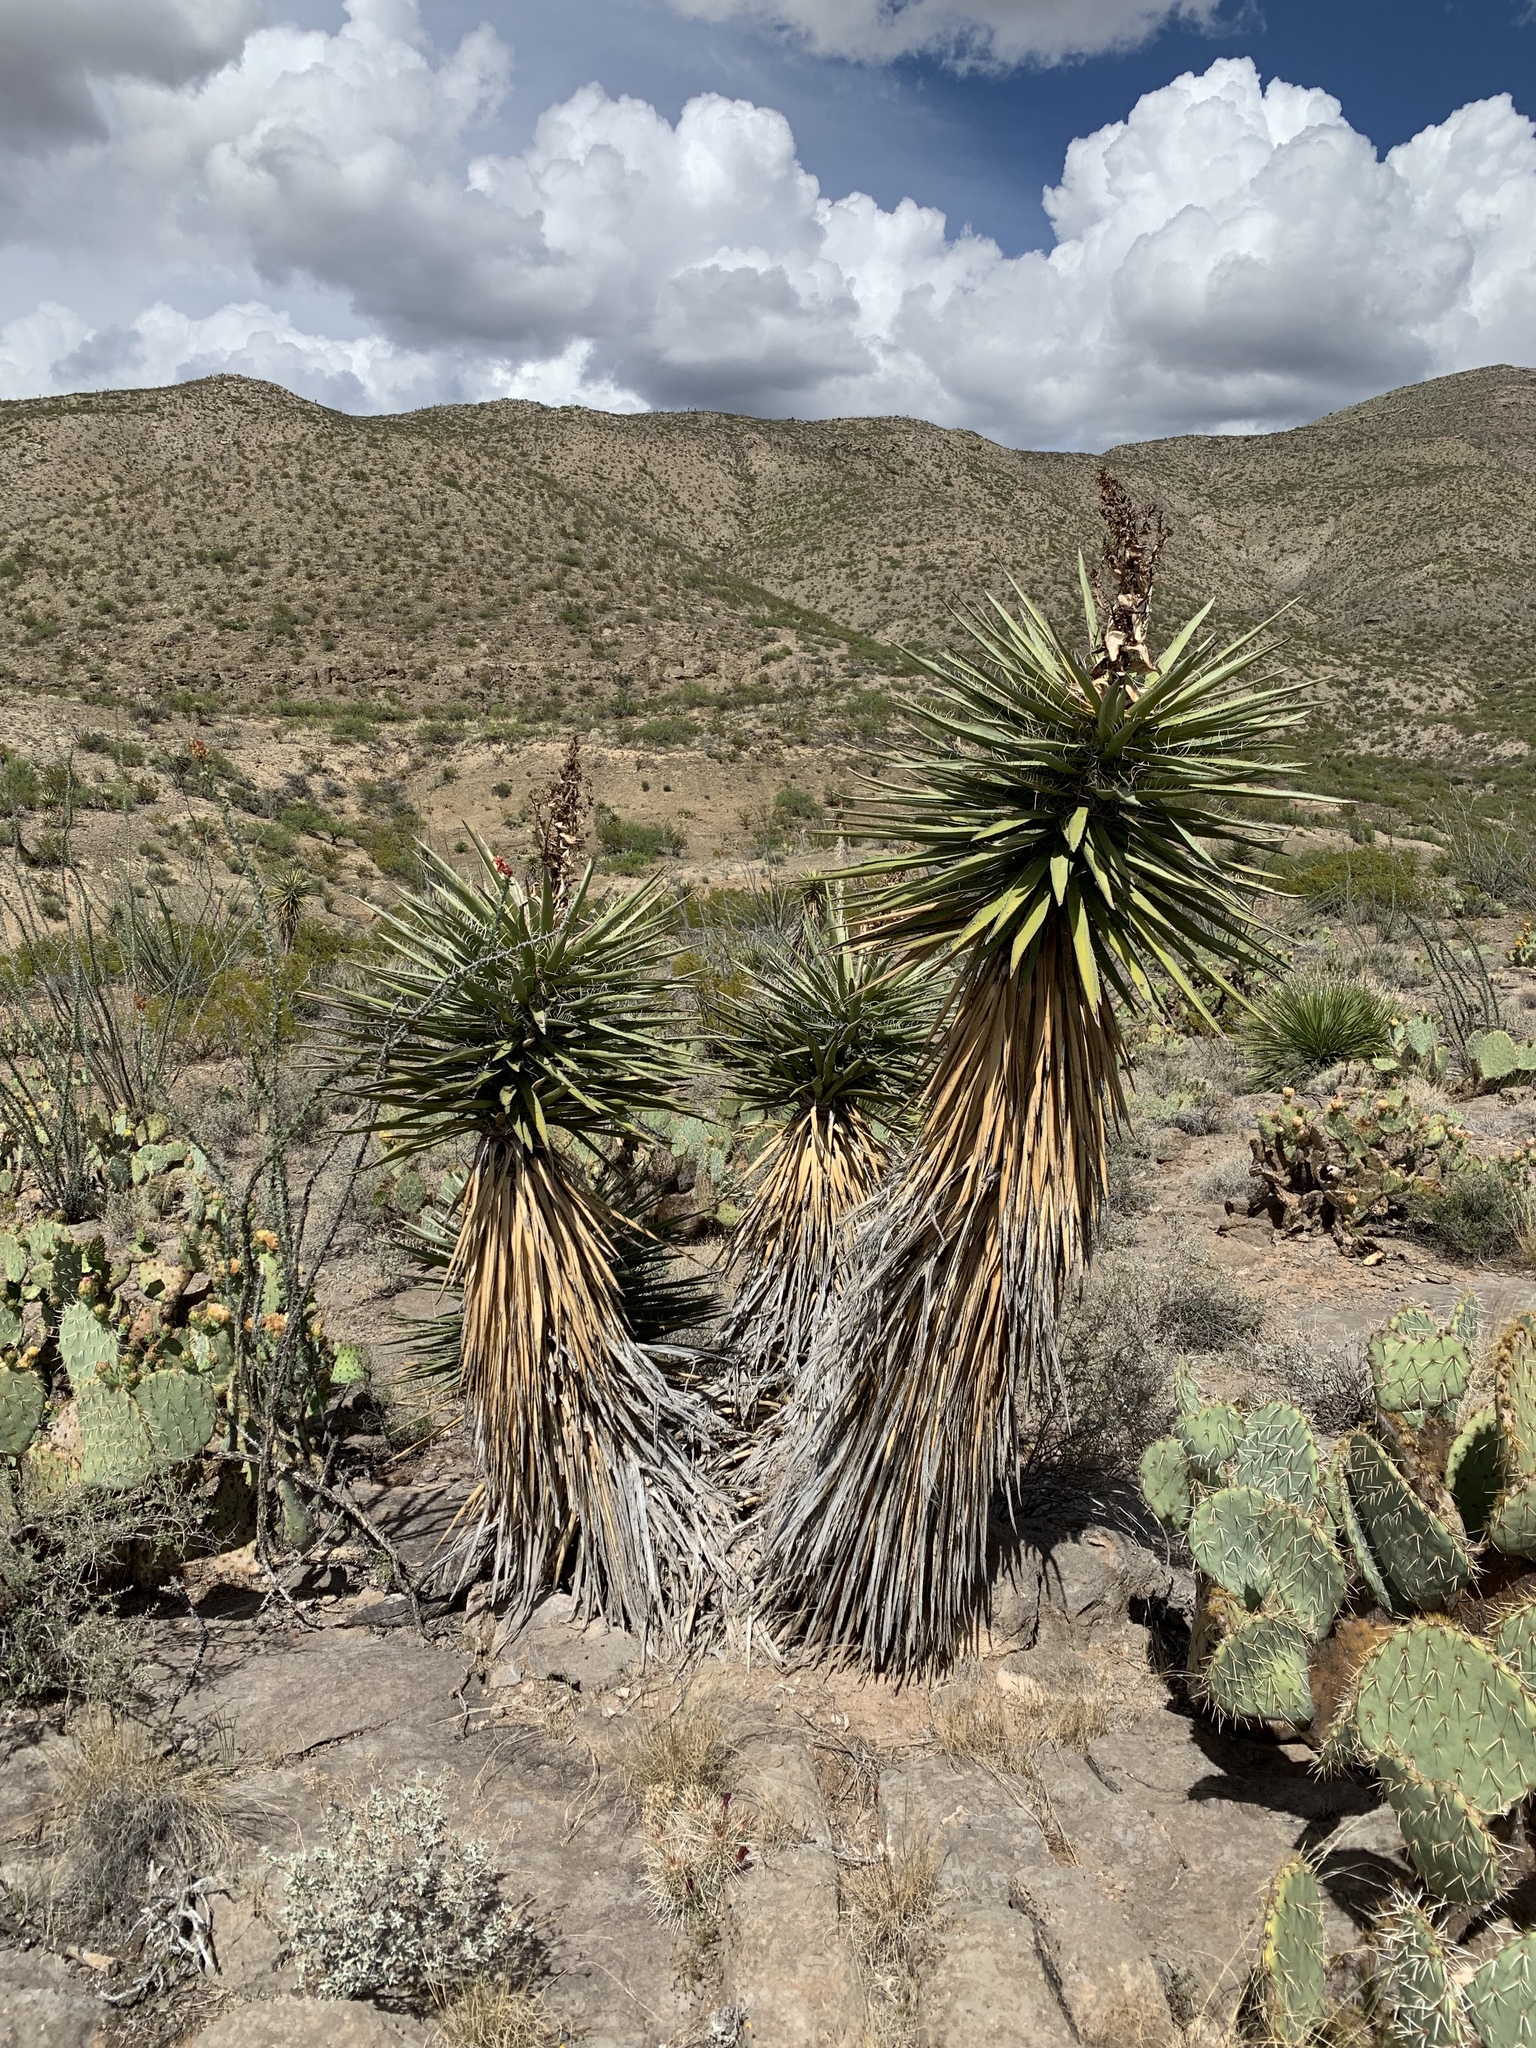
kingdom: Plantae
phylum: Tracheophyta
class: Liliopsida
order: Asparagales
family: Asparagaceae
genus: Yucca
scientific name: Yucca treculiana
